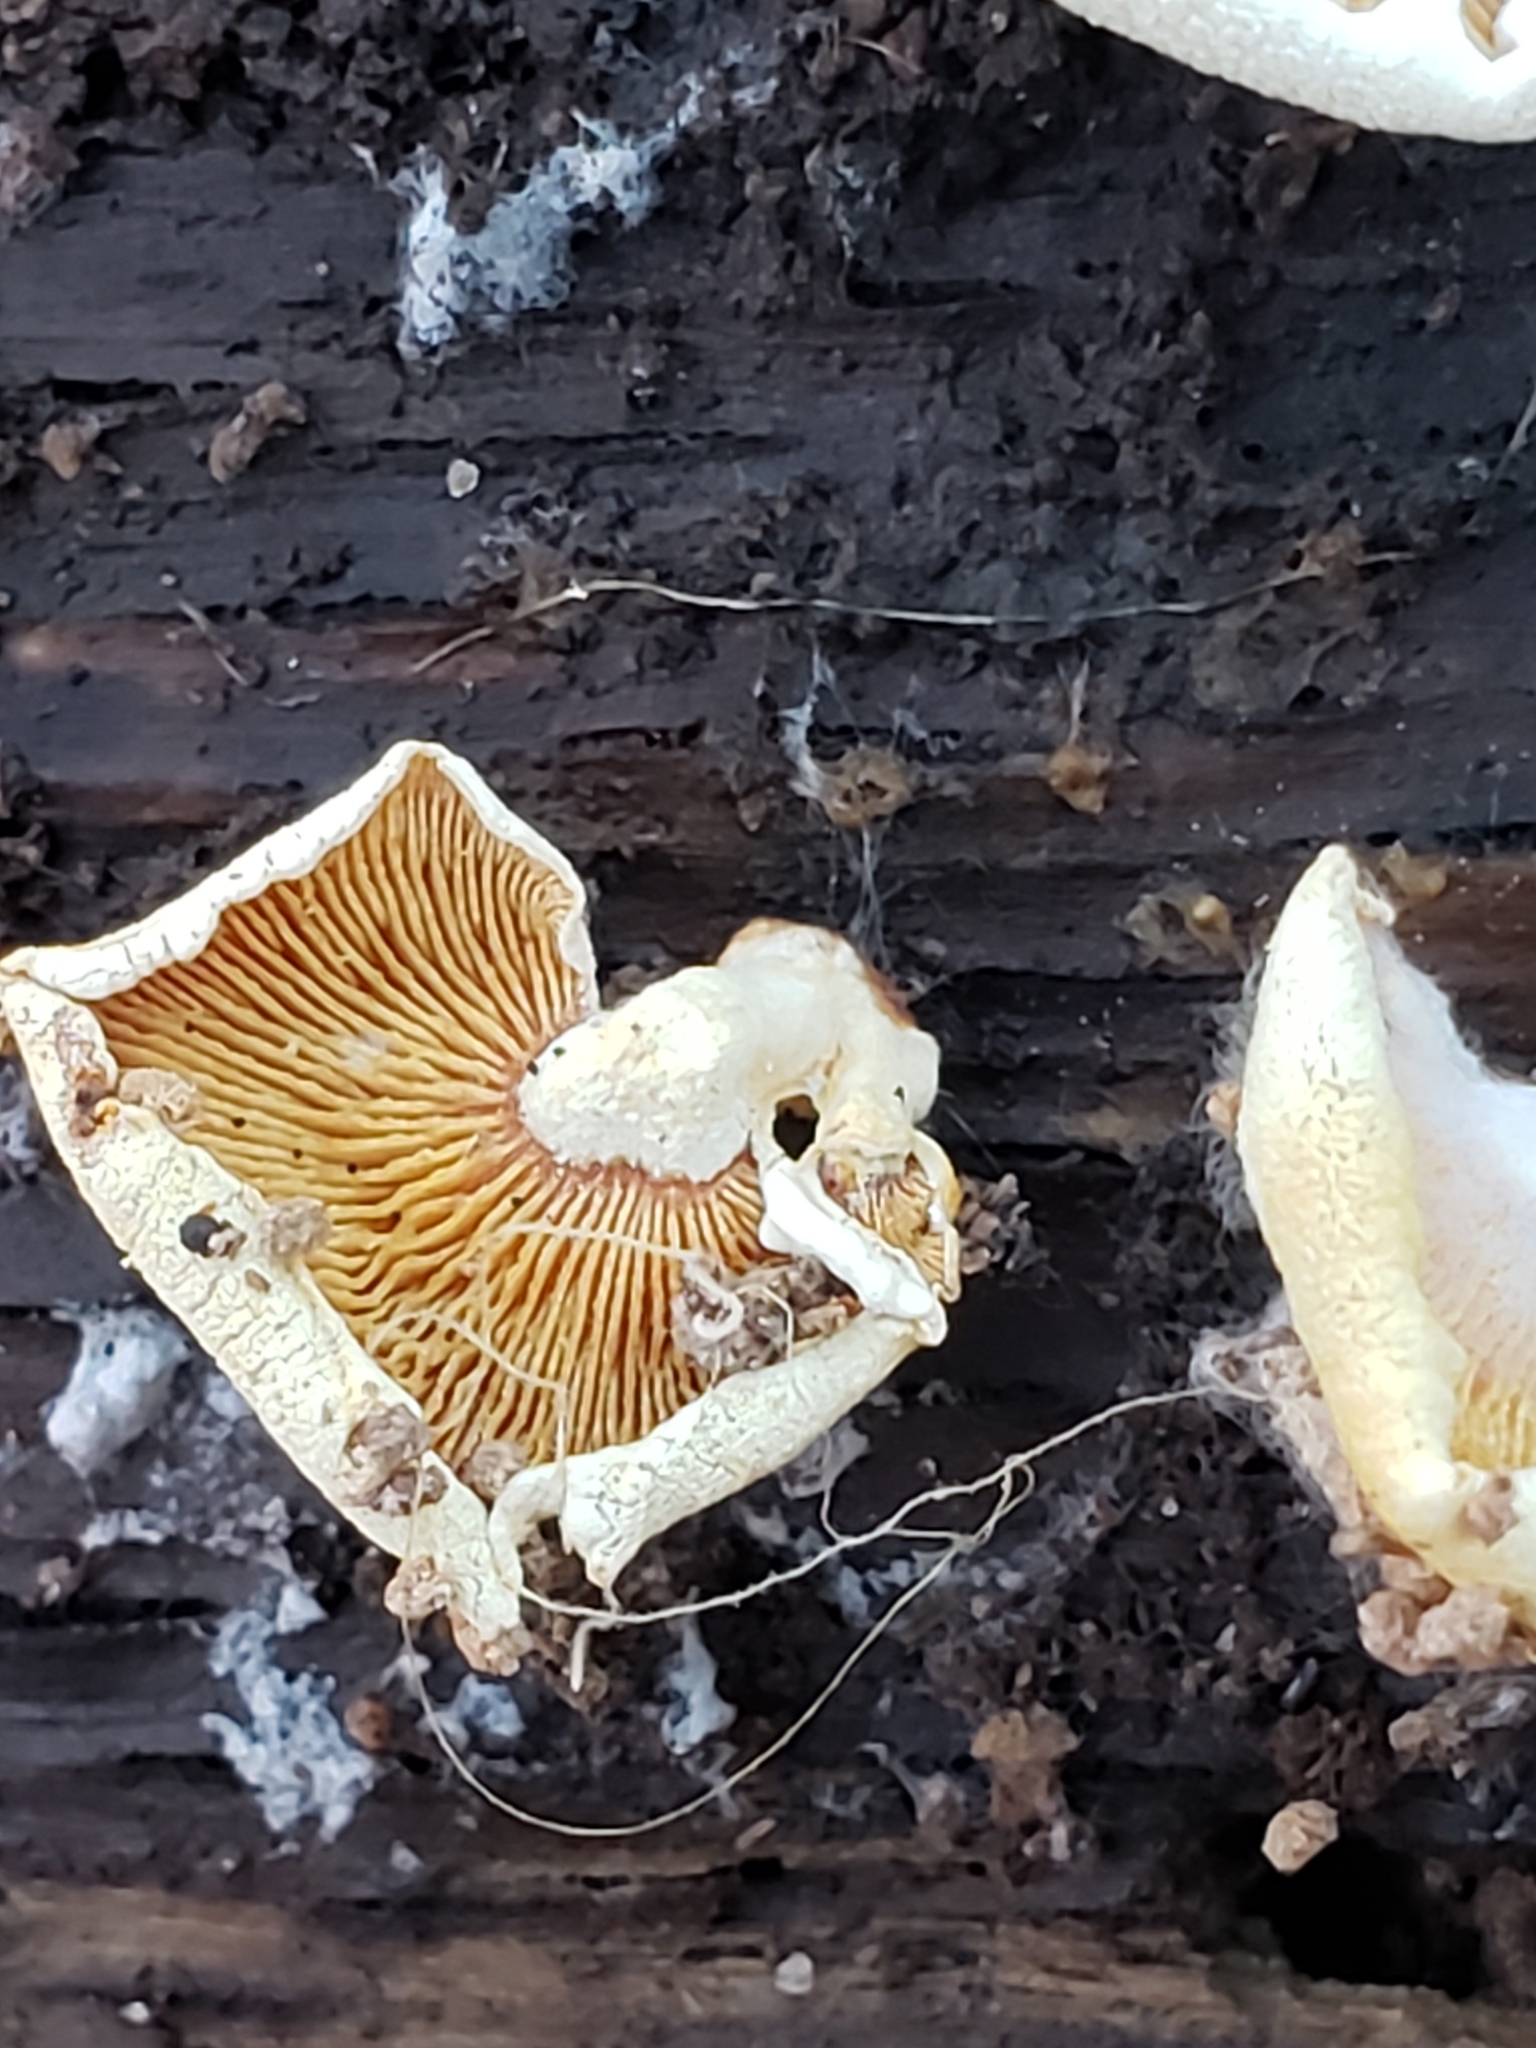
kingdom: Fungi
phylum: Basidiomycota
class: Agaricomycetes
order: Agaricales
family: Mycenaceae
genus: Panellus
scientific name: Panellus stipticus
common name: Bitter oysterling
